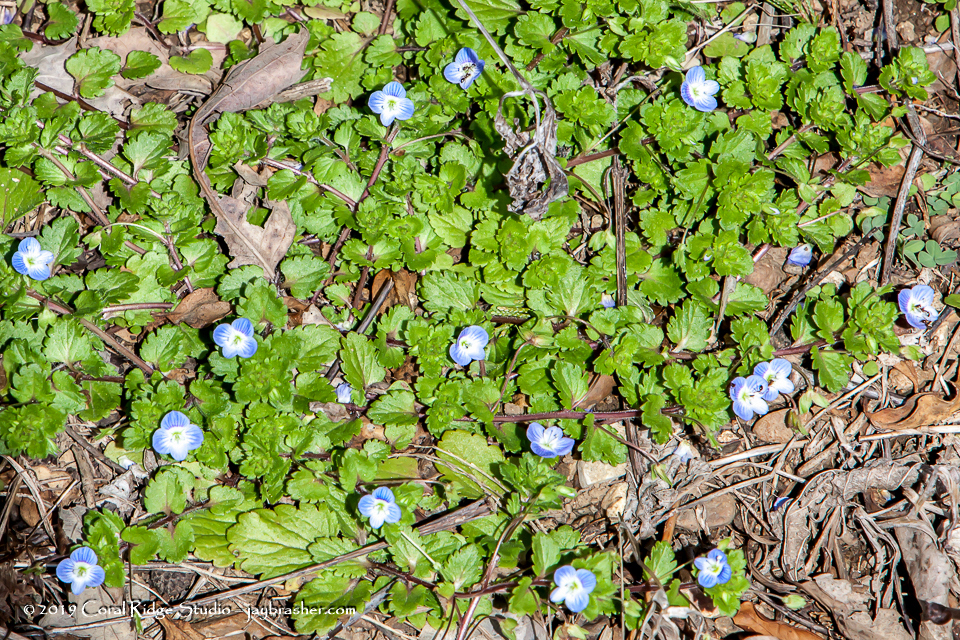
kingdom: Plantae
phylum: Tracheophyta
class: Magnoliopsida
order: Lamiales
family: Plantaginaceae
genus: Veronica
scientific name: Veronica polita
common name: Grey field-speedwell
